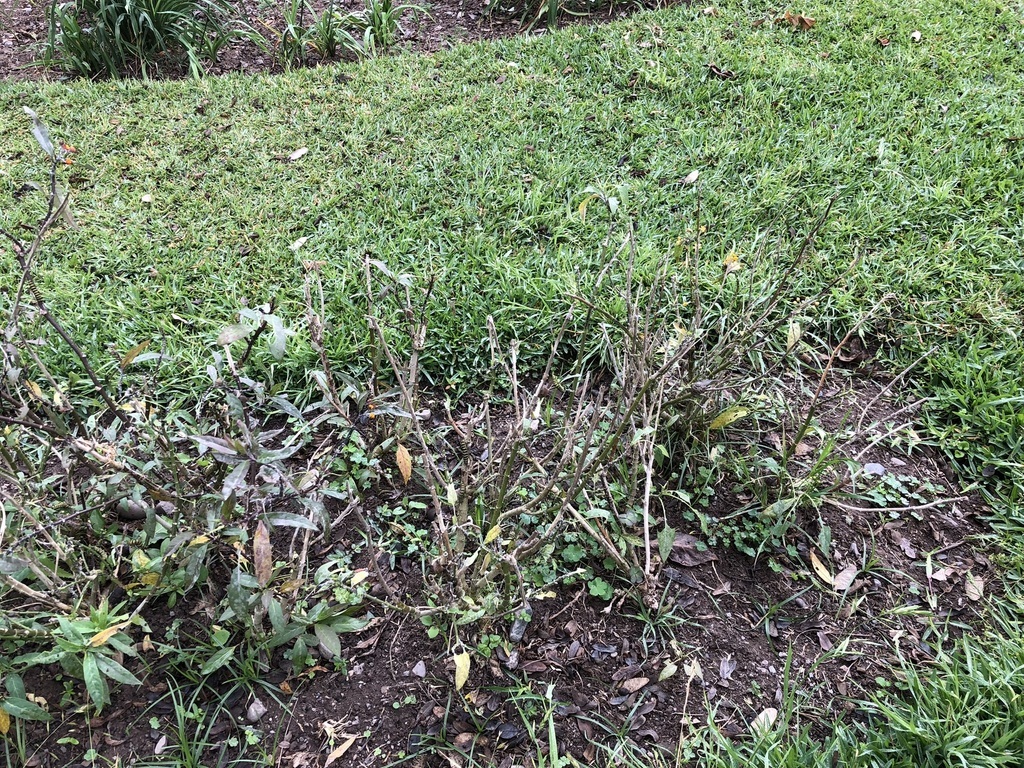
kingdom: Animalia
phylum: Arthropoda
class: Insecta
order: Lepidoptera
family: Nymphalidae
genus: Danaus
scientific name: Danaus plexippus
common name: Monarch
